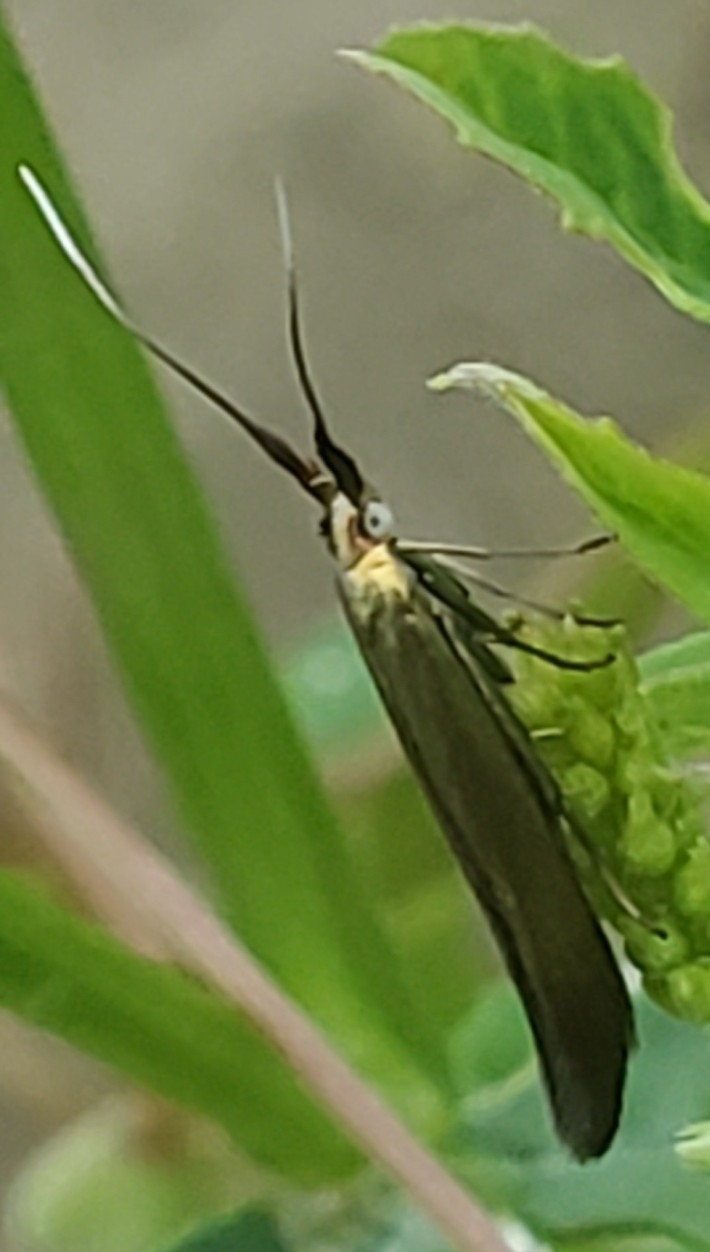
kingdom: Animalia
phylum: Arthropoda
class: Insecta
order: Lepidoptera
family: Coleophoridae
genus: Coleophora
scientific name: Coleophora trifolii
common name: Large clover case-bearer
